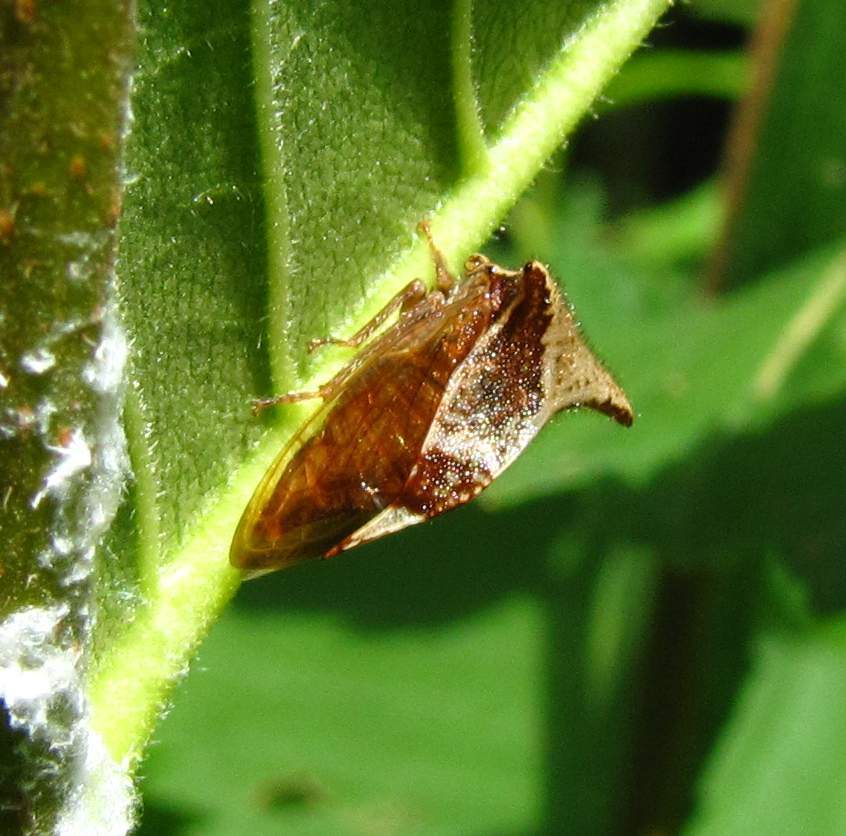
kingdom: Animalia
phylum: Arthropoda
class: Insecta
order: Hemiptera
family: Membracidae
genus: Stictocephala
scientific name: Stictocephala diceros
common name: Two-horned treehopper
